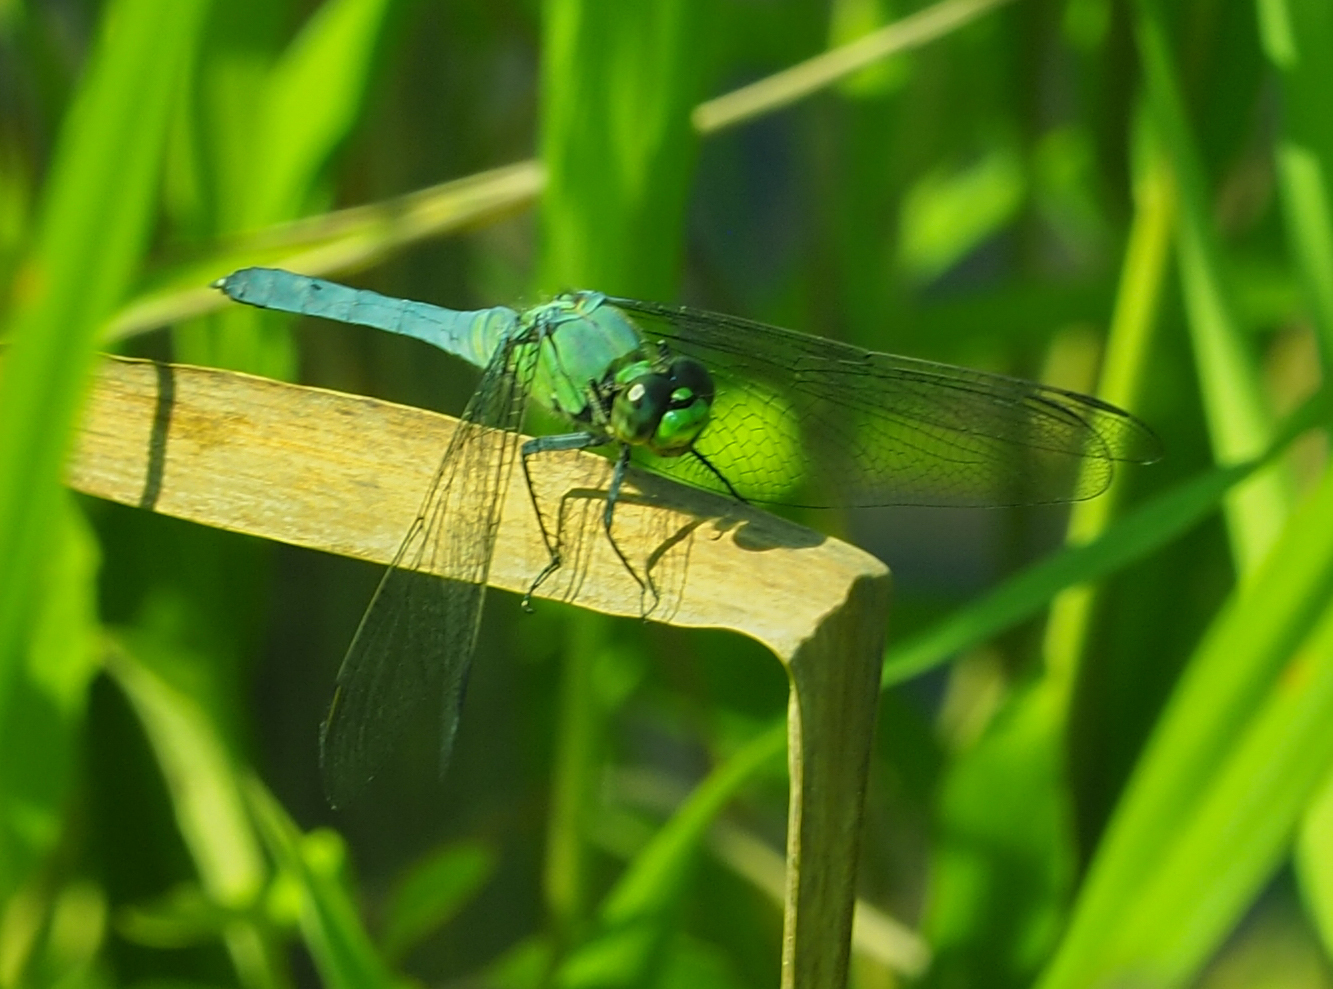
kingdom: Animalia
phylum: Arthropoda
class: Insecta
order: Odonata
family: Libellulidae
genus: Erythemis
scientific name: Erythemis simplicicollis
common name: Eastern pondhawk
